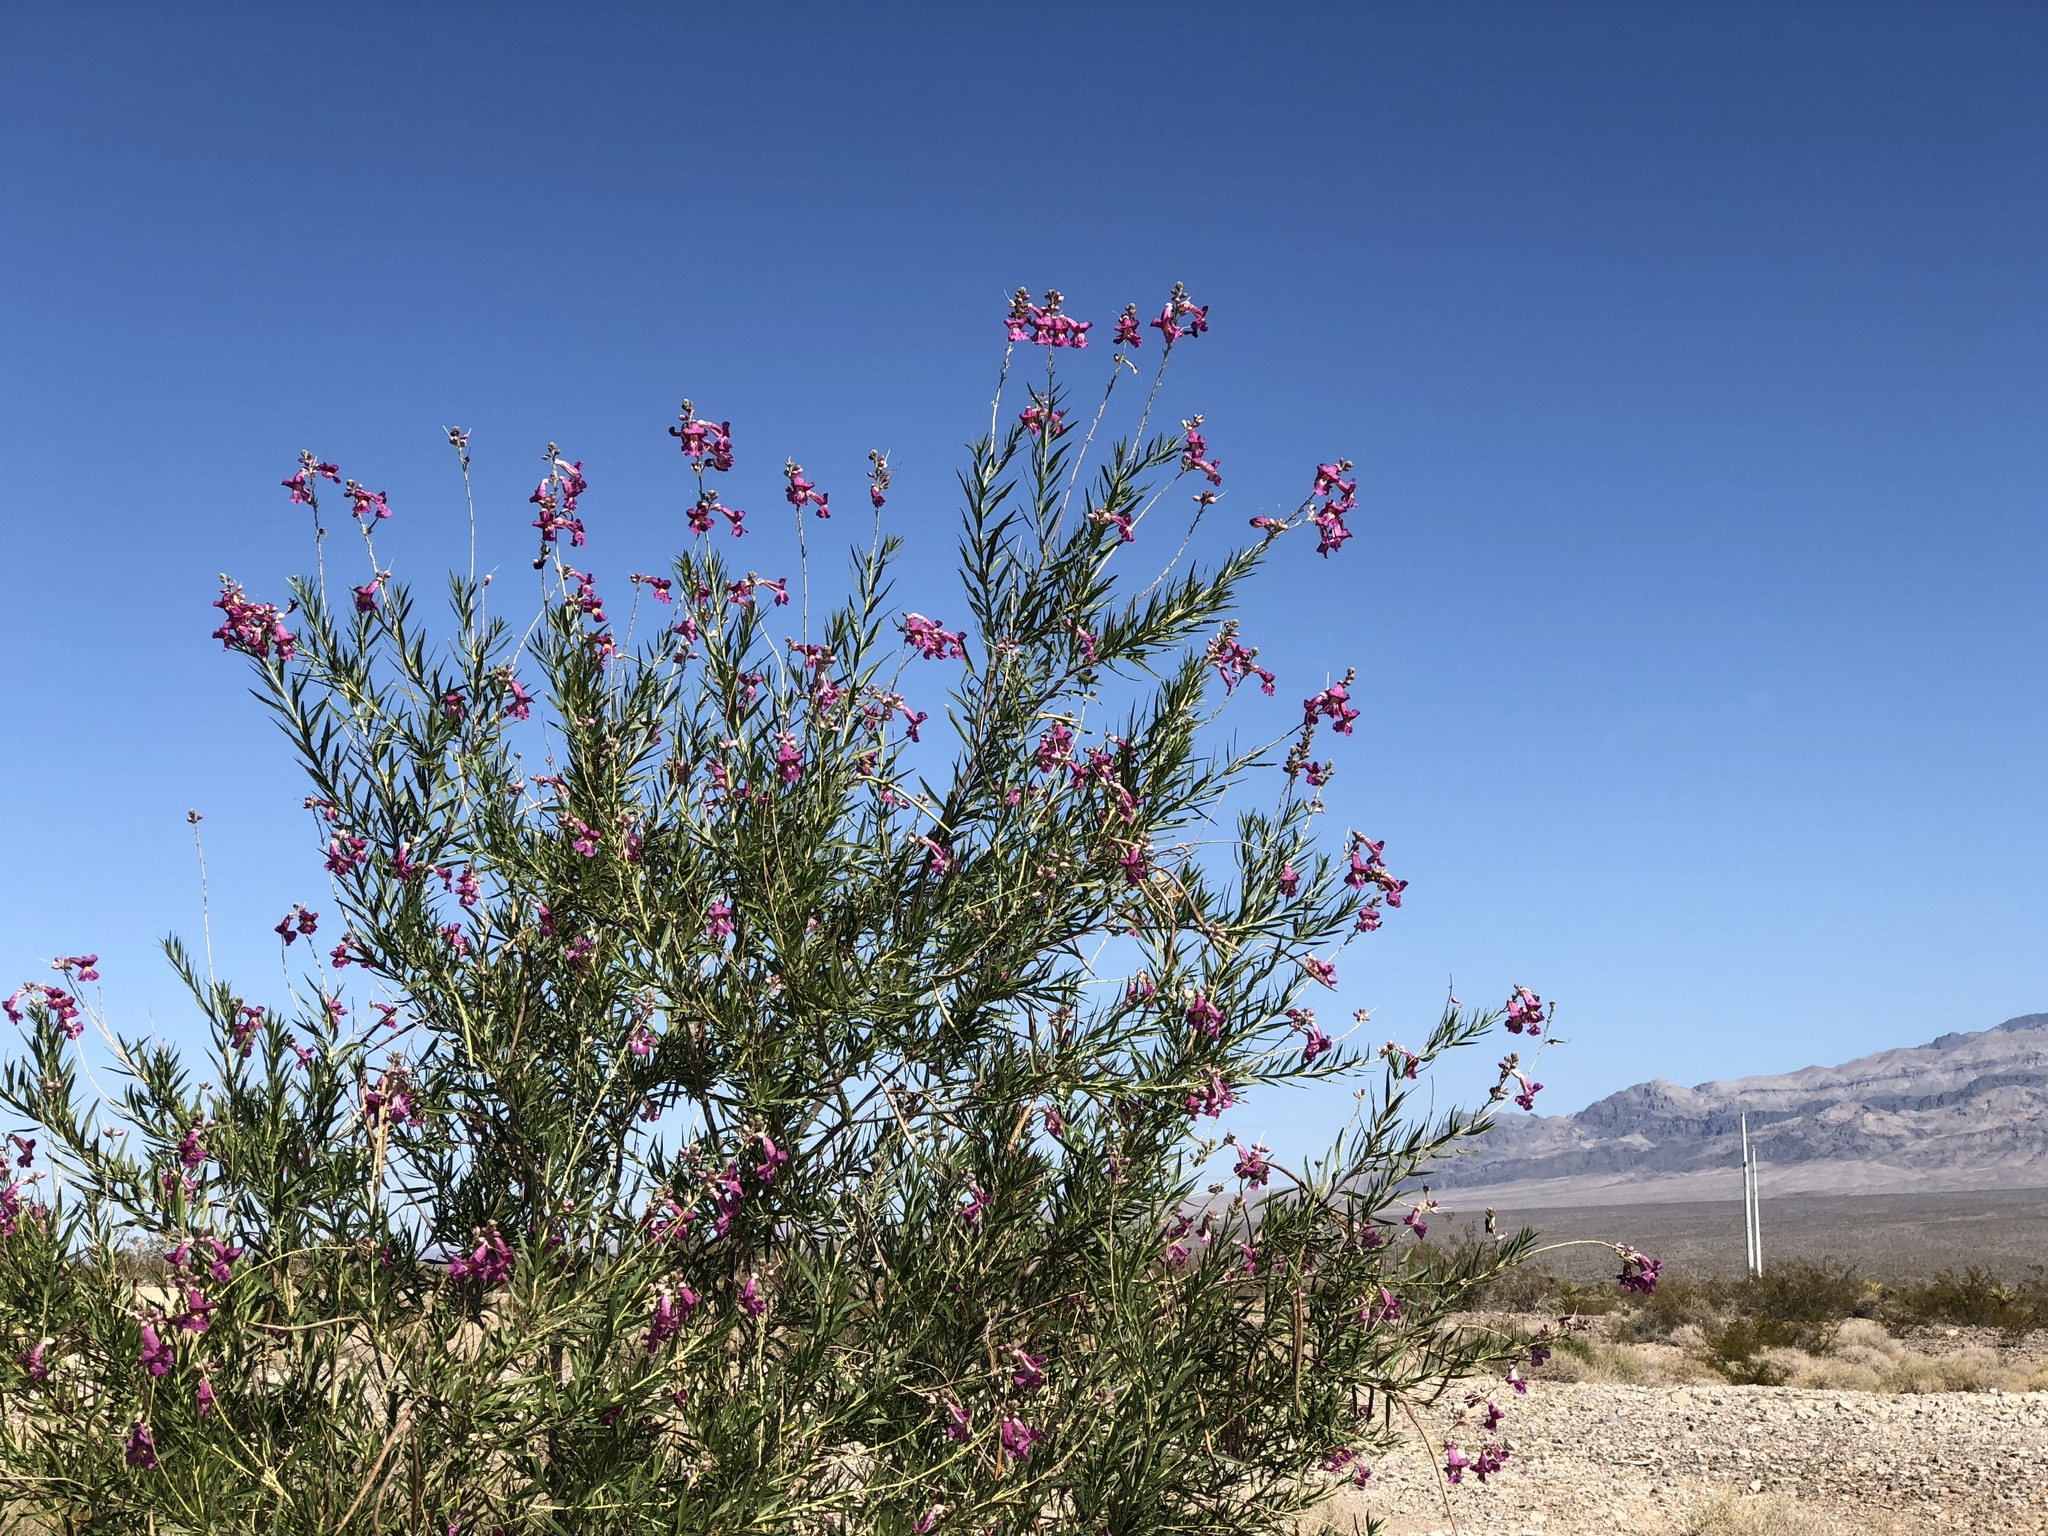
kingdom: Plantae
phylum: Tracheophyta
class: Magnoliopsida
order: Lamiales
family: Bignoniaceae
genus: Chilopsis
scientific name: Chilopsis linearis
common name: Desert-willow
